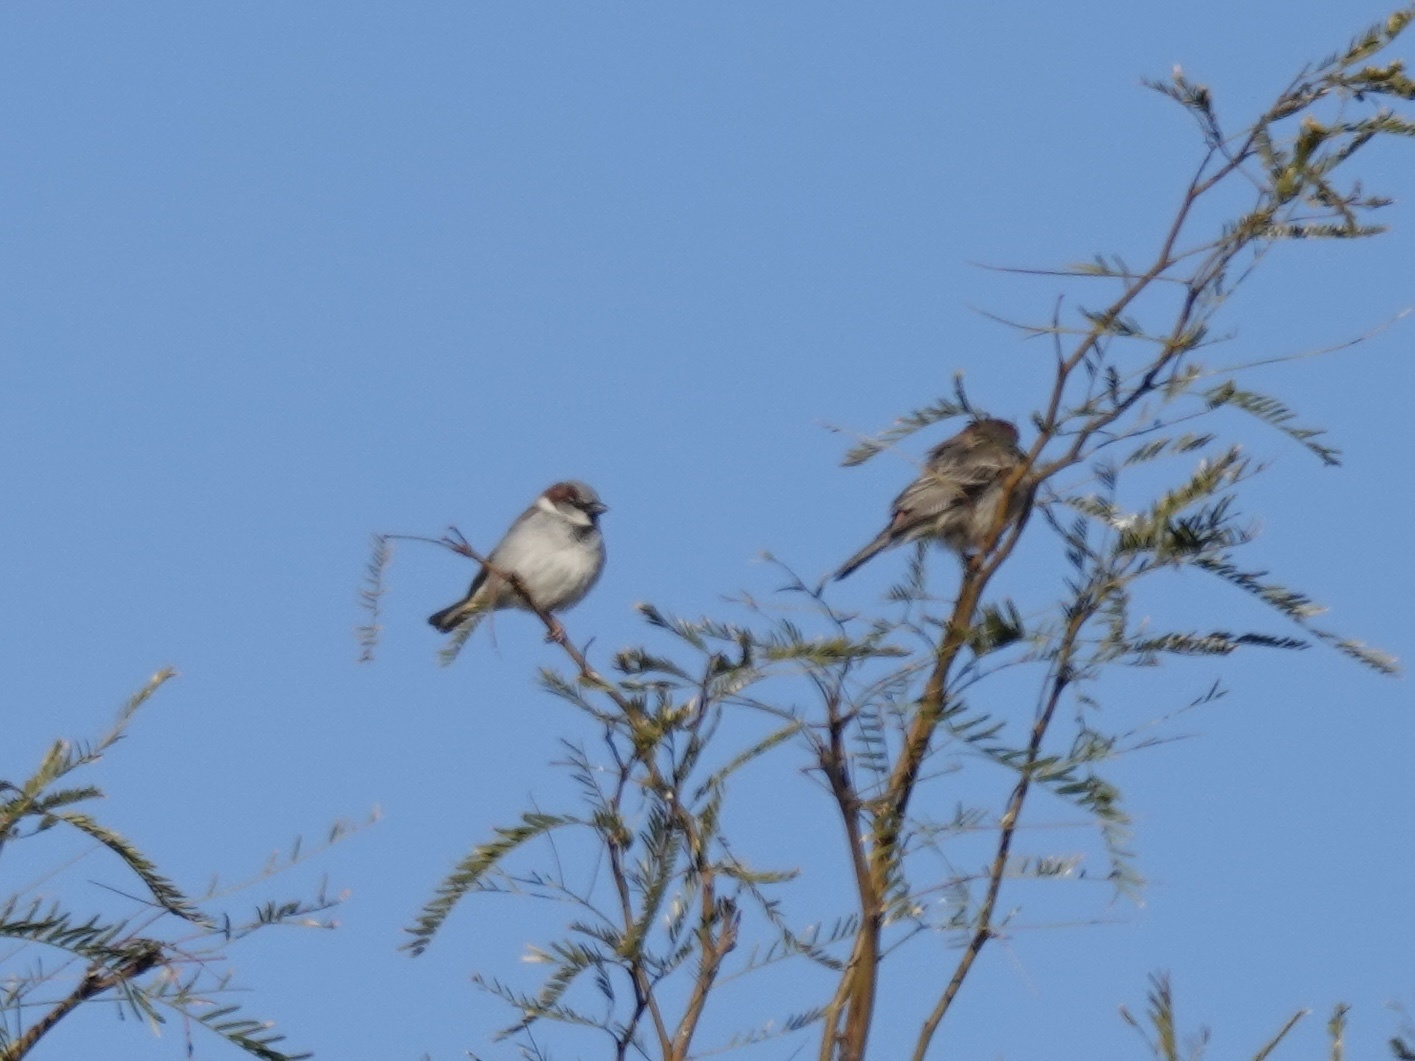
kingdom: Animalia
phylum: Chordata
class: Aves
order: Passeriformes
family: Passeridae
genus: Passer
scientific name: Passer domesticus
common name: House sparrow
